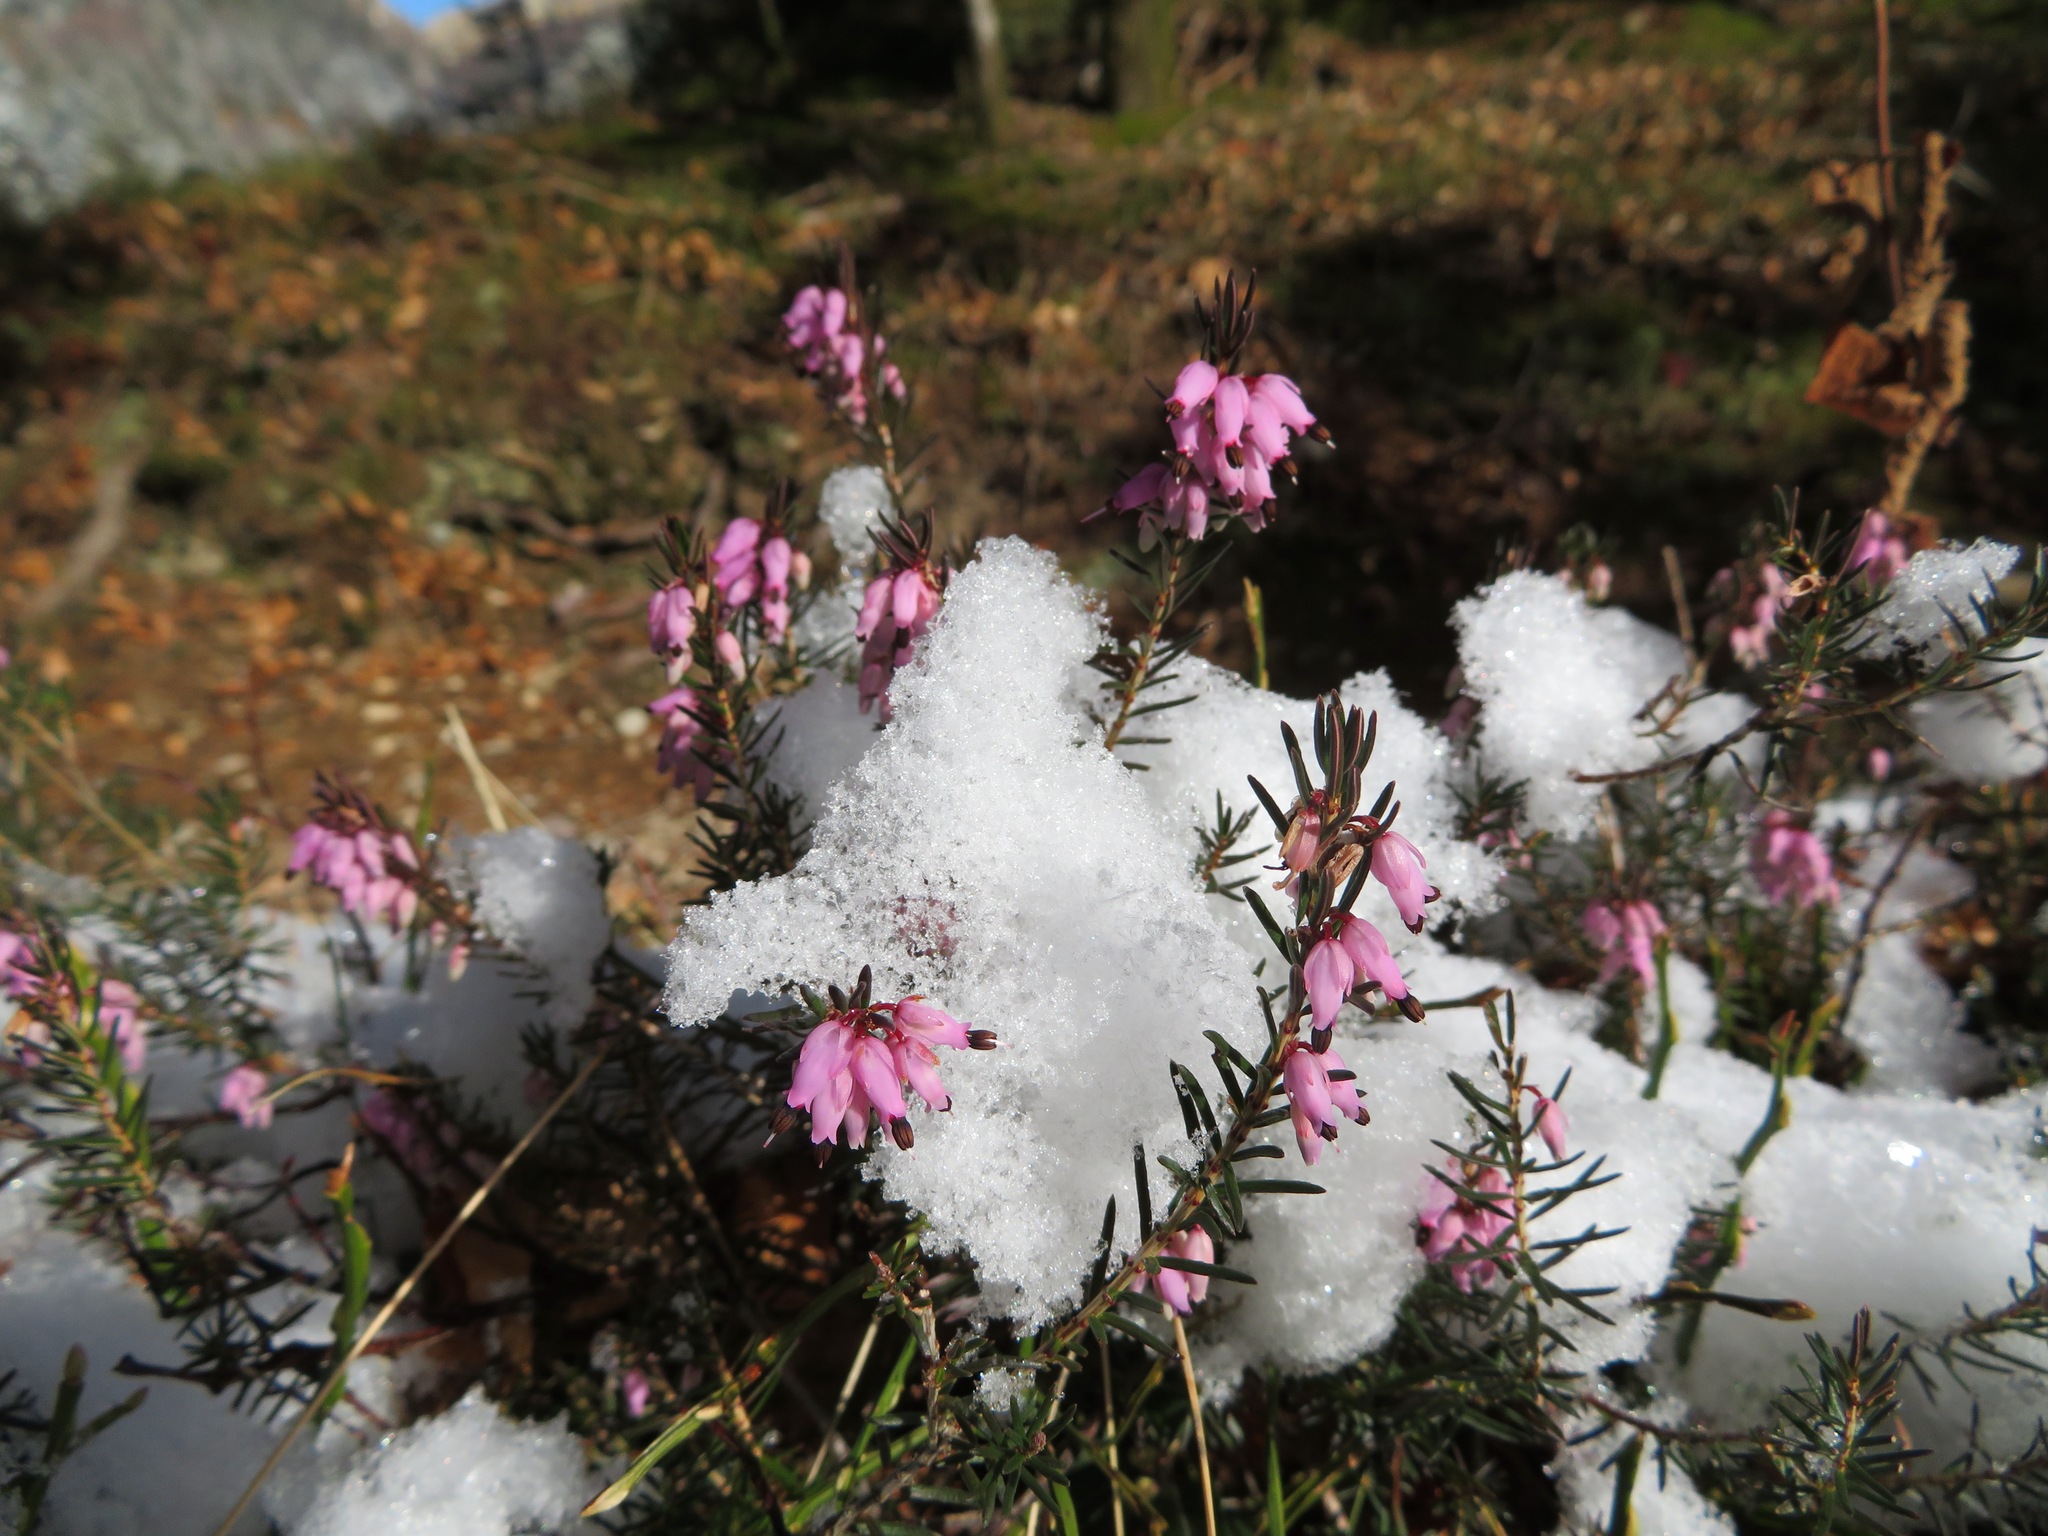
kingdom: Plantae
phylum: Tracheophyta
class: Magnoliopsida
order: Ericales
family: Ericaceae
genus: Erica
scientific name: Erica carnea
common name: Winter heath
